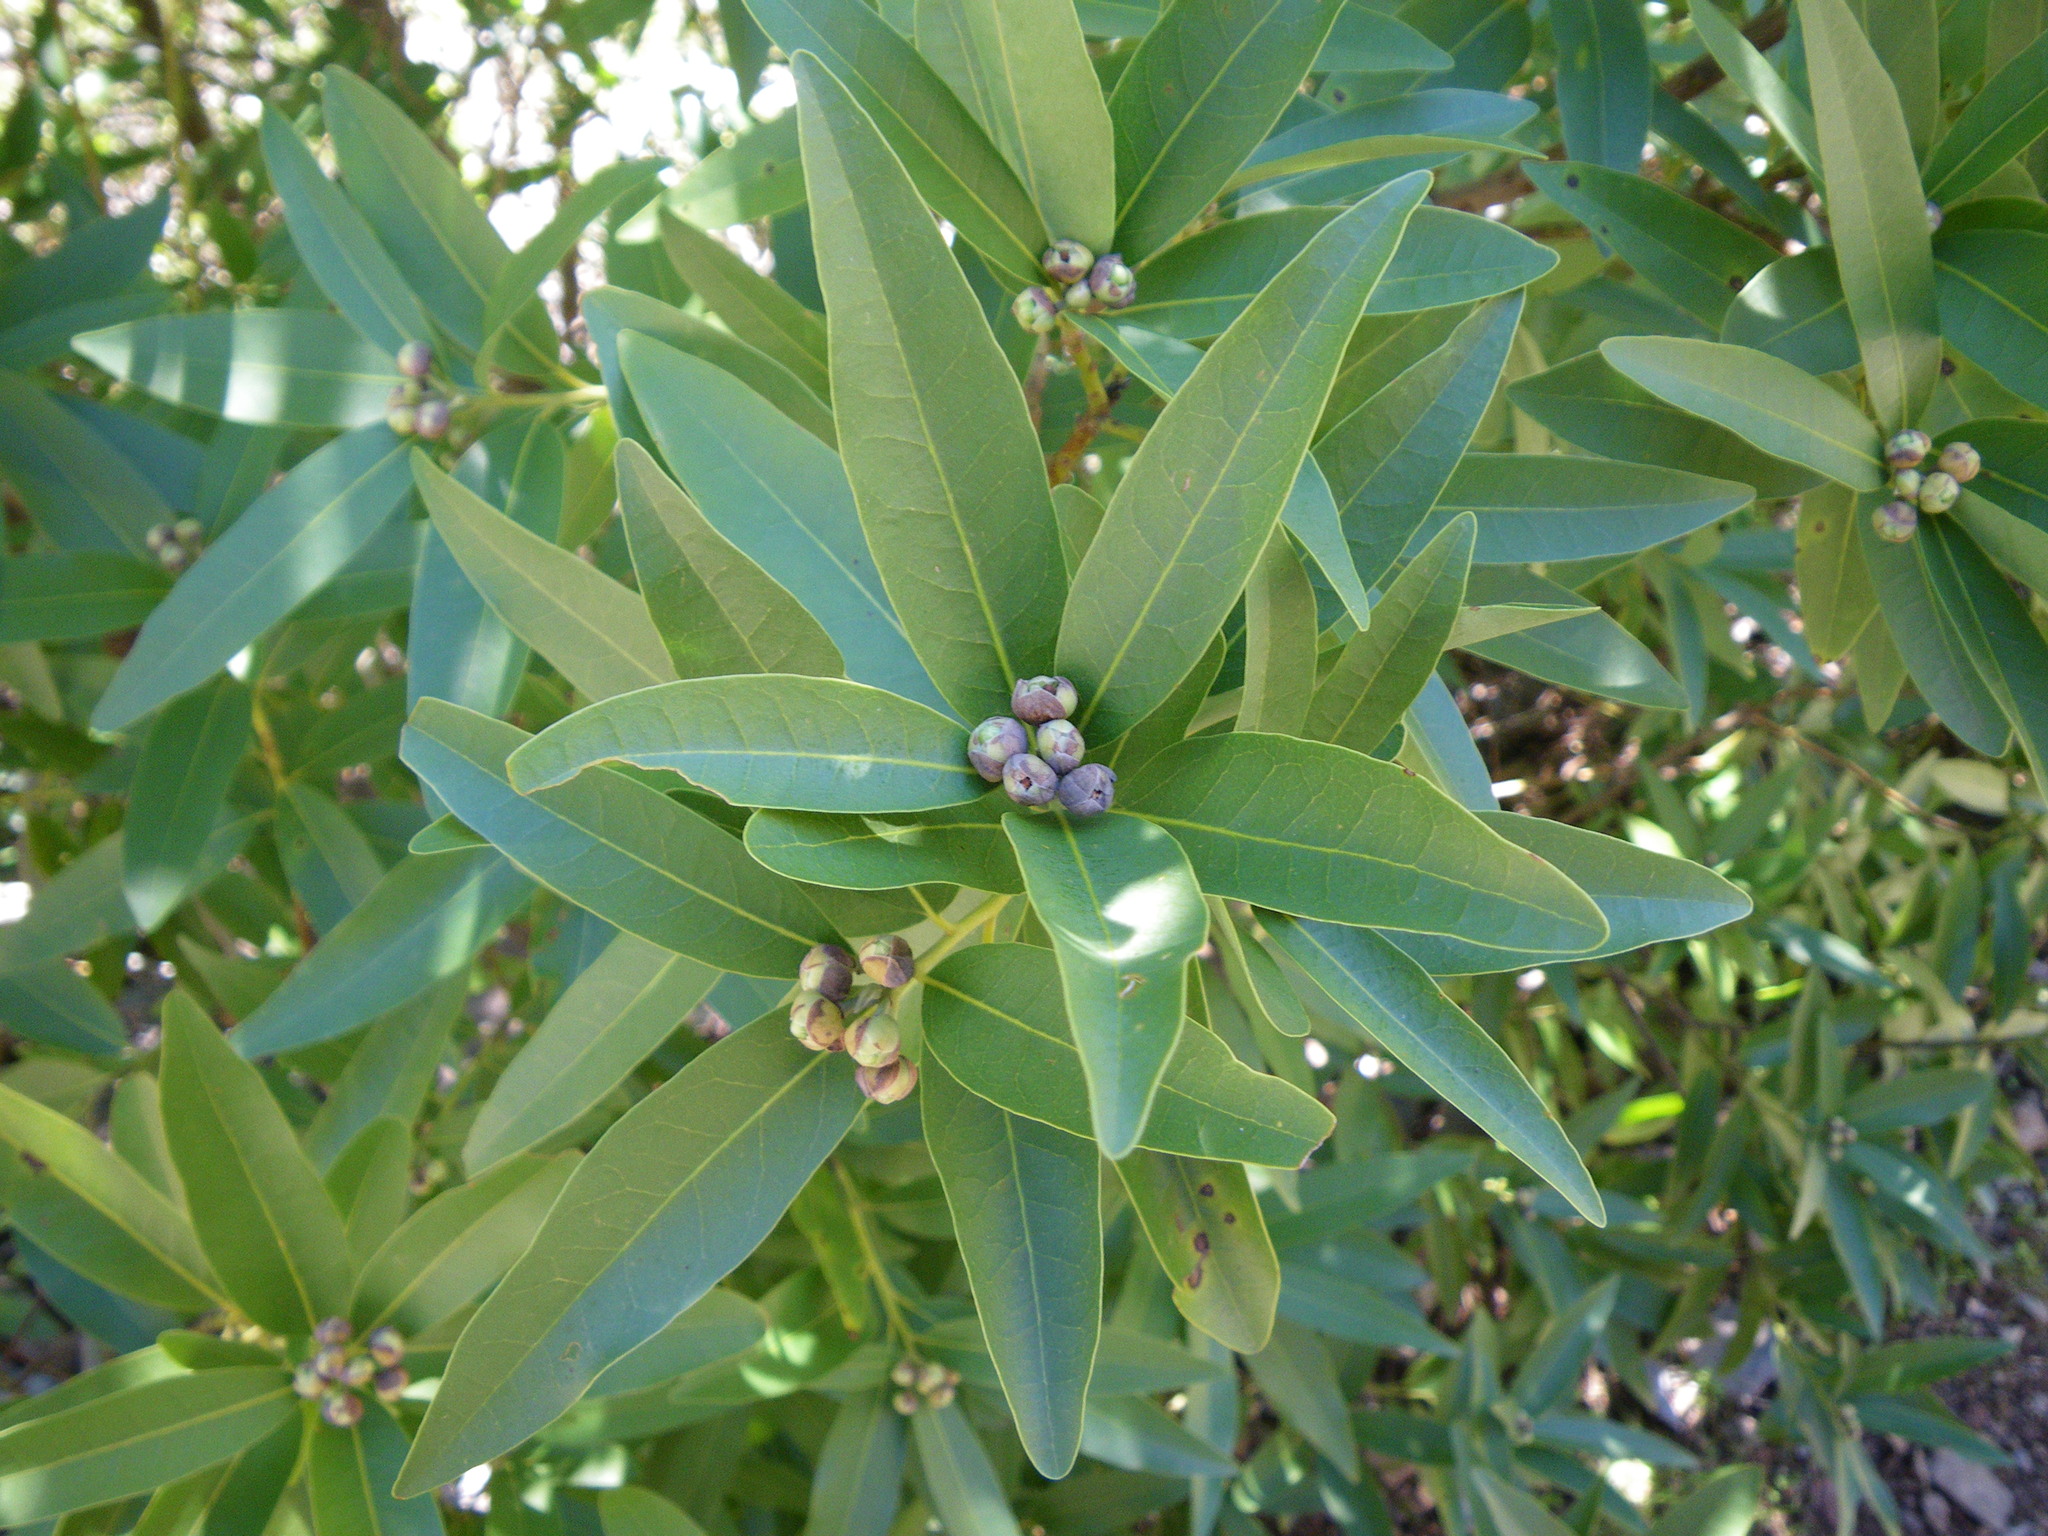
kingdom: Plantae
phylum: Tracheophyta
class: Magnoliopsida
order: Laurales
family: Lauraceae
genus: Umbellularia
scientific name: Umbellularia californica
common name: California bay
